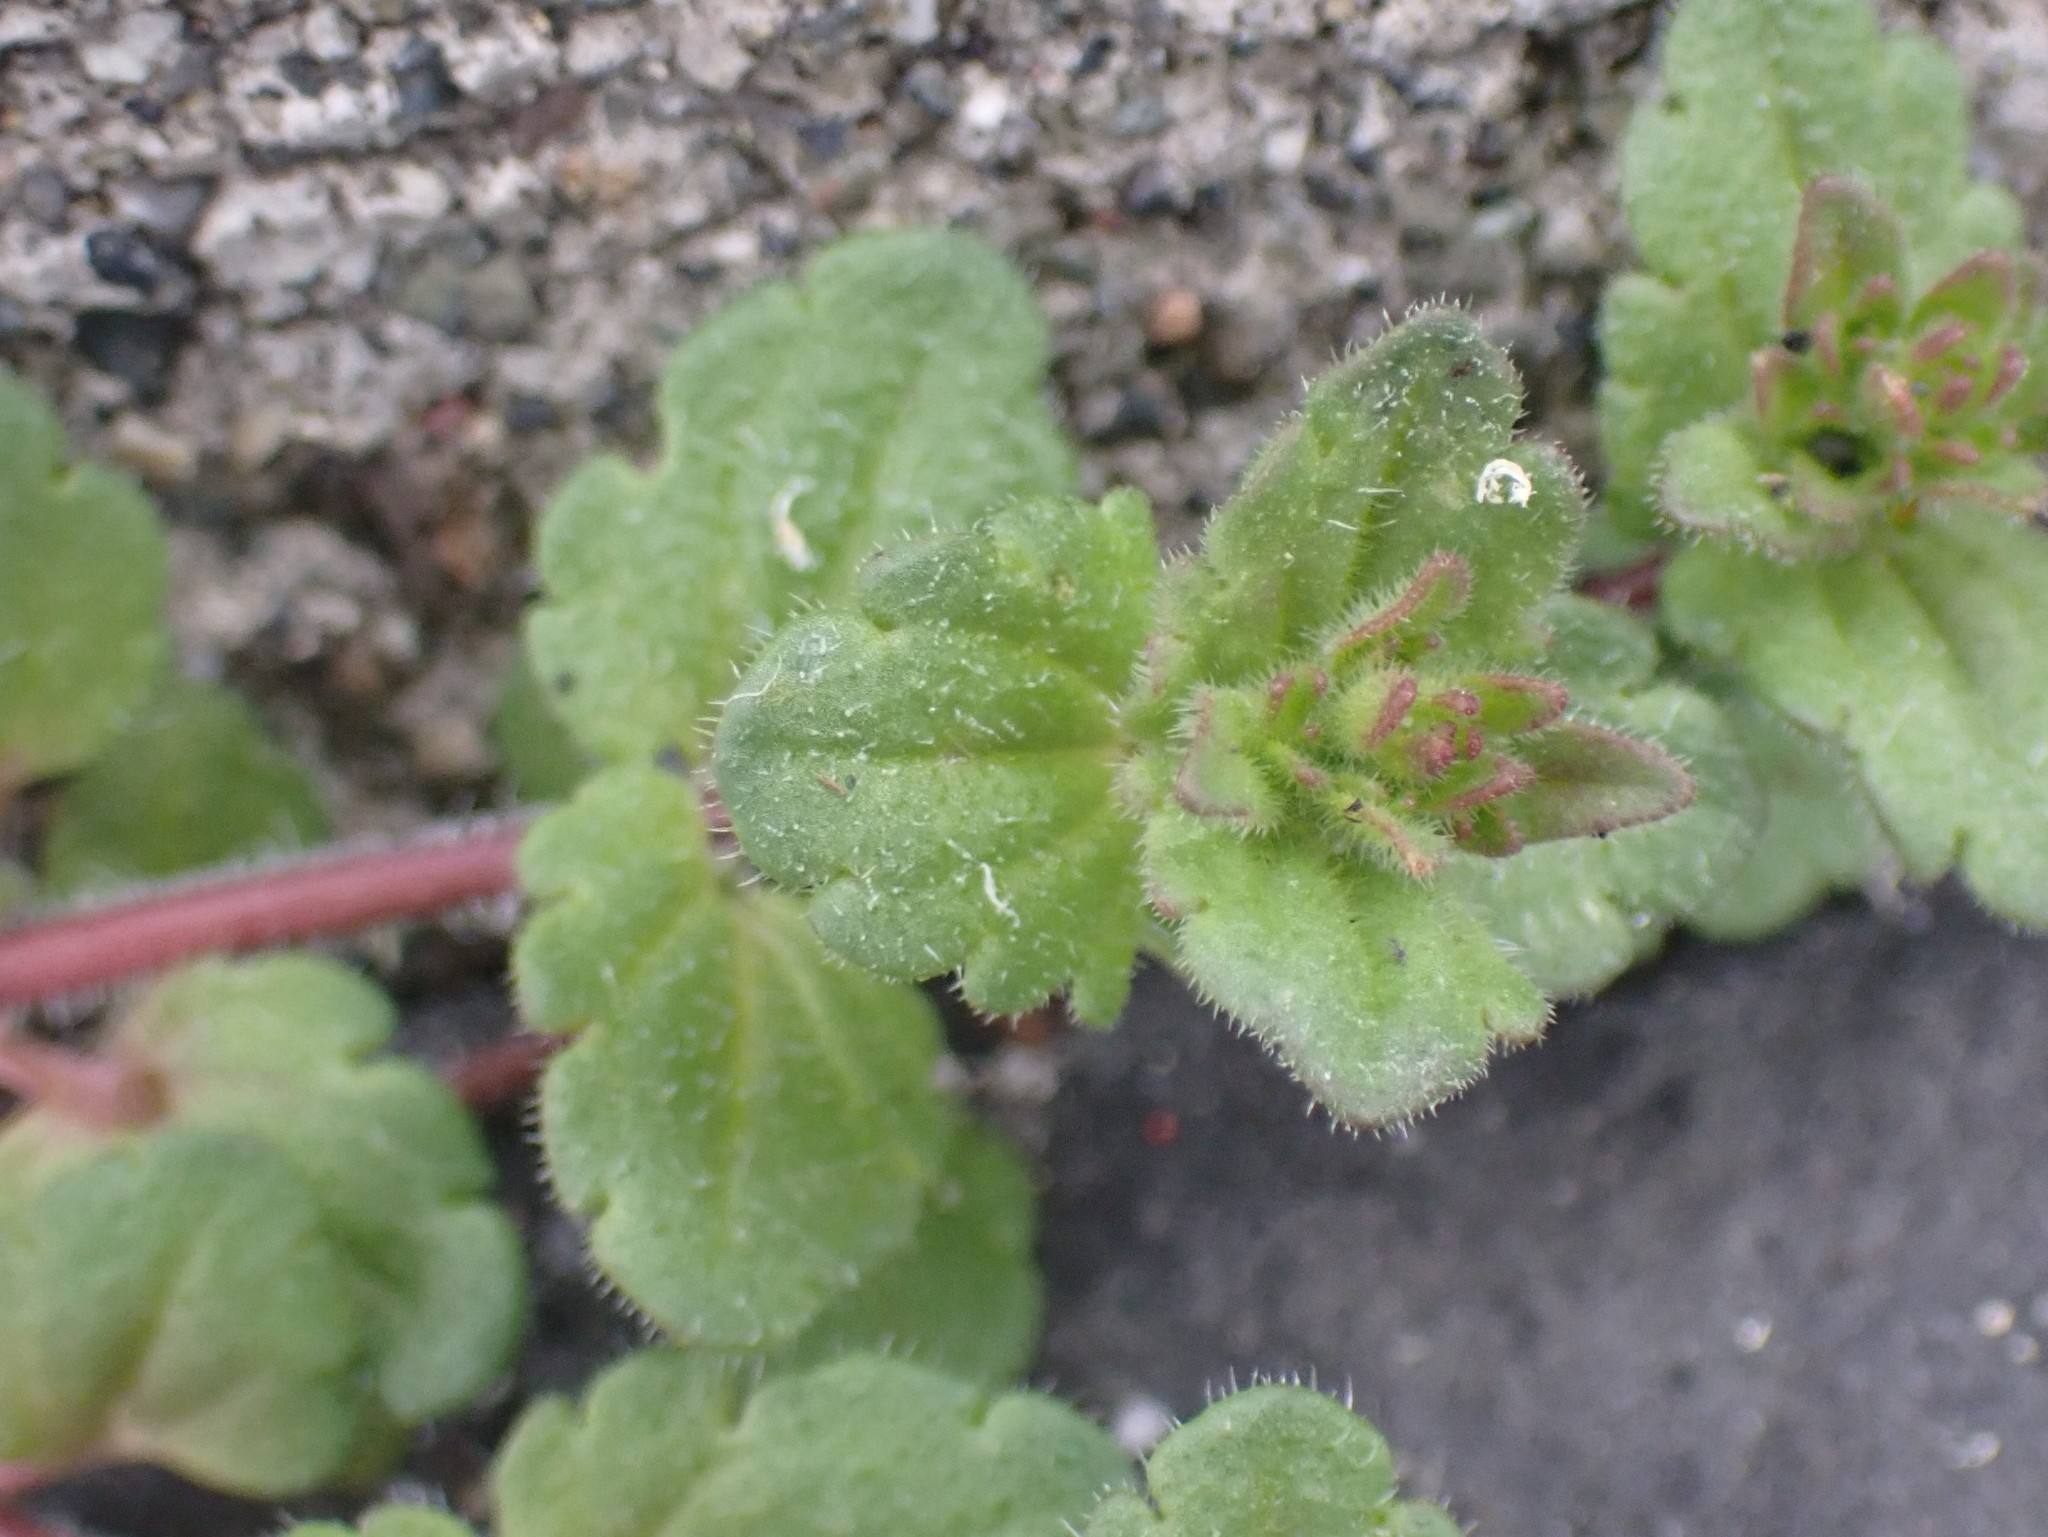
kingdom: Plantae
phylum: Tracheophyta
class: Magnoliopsida
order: Lamiales
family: Plantaginaceae
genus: Veronica
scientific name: Veronica arvensis
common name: Corn speedwell
